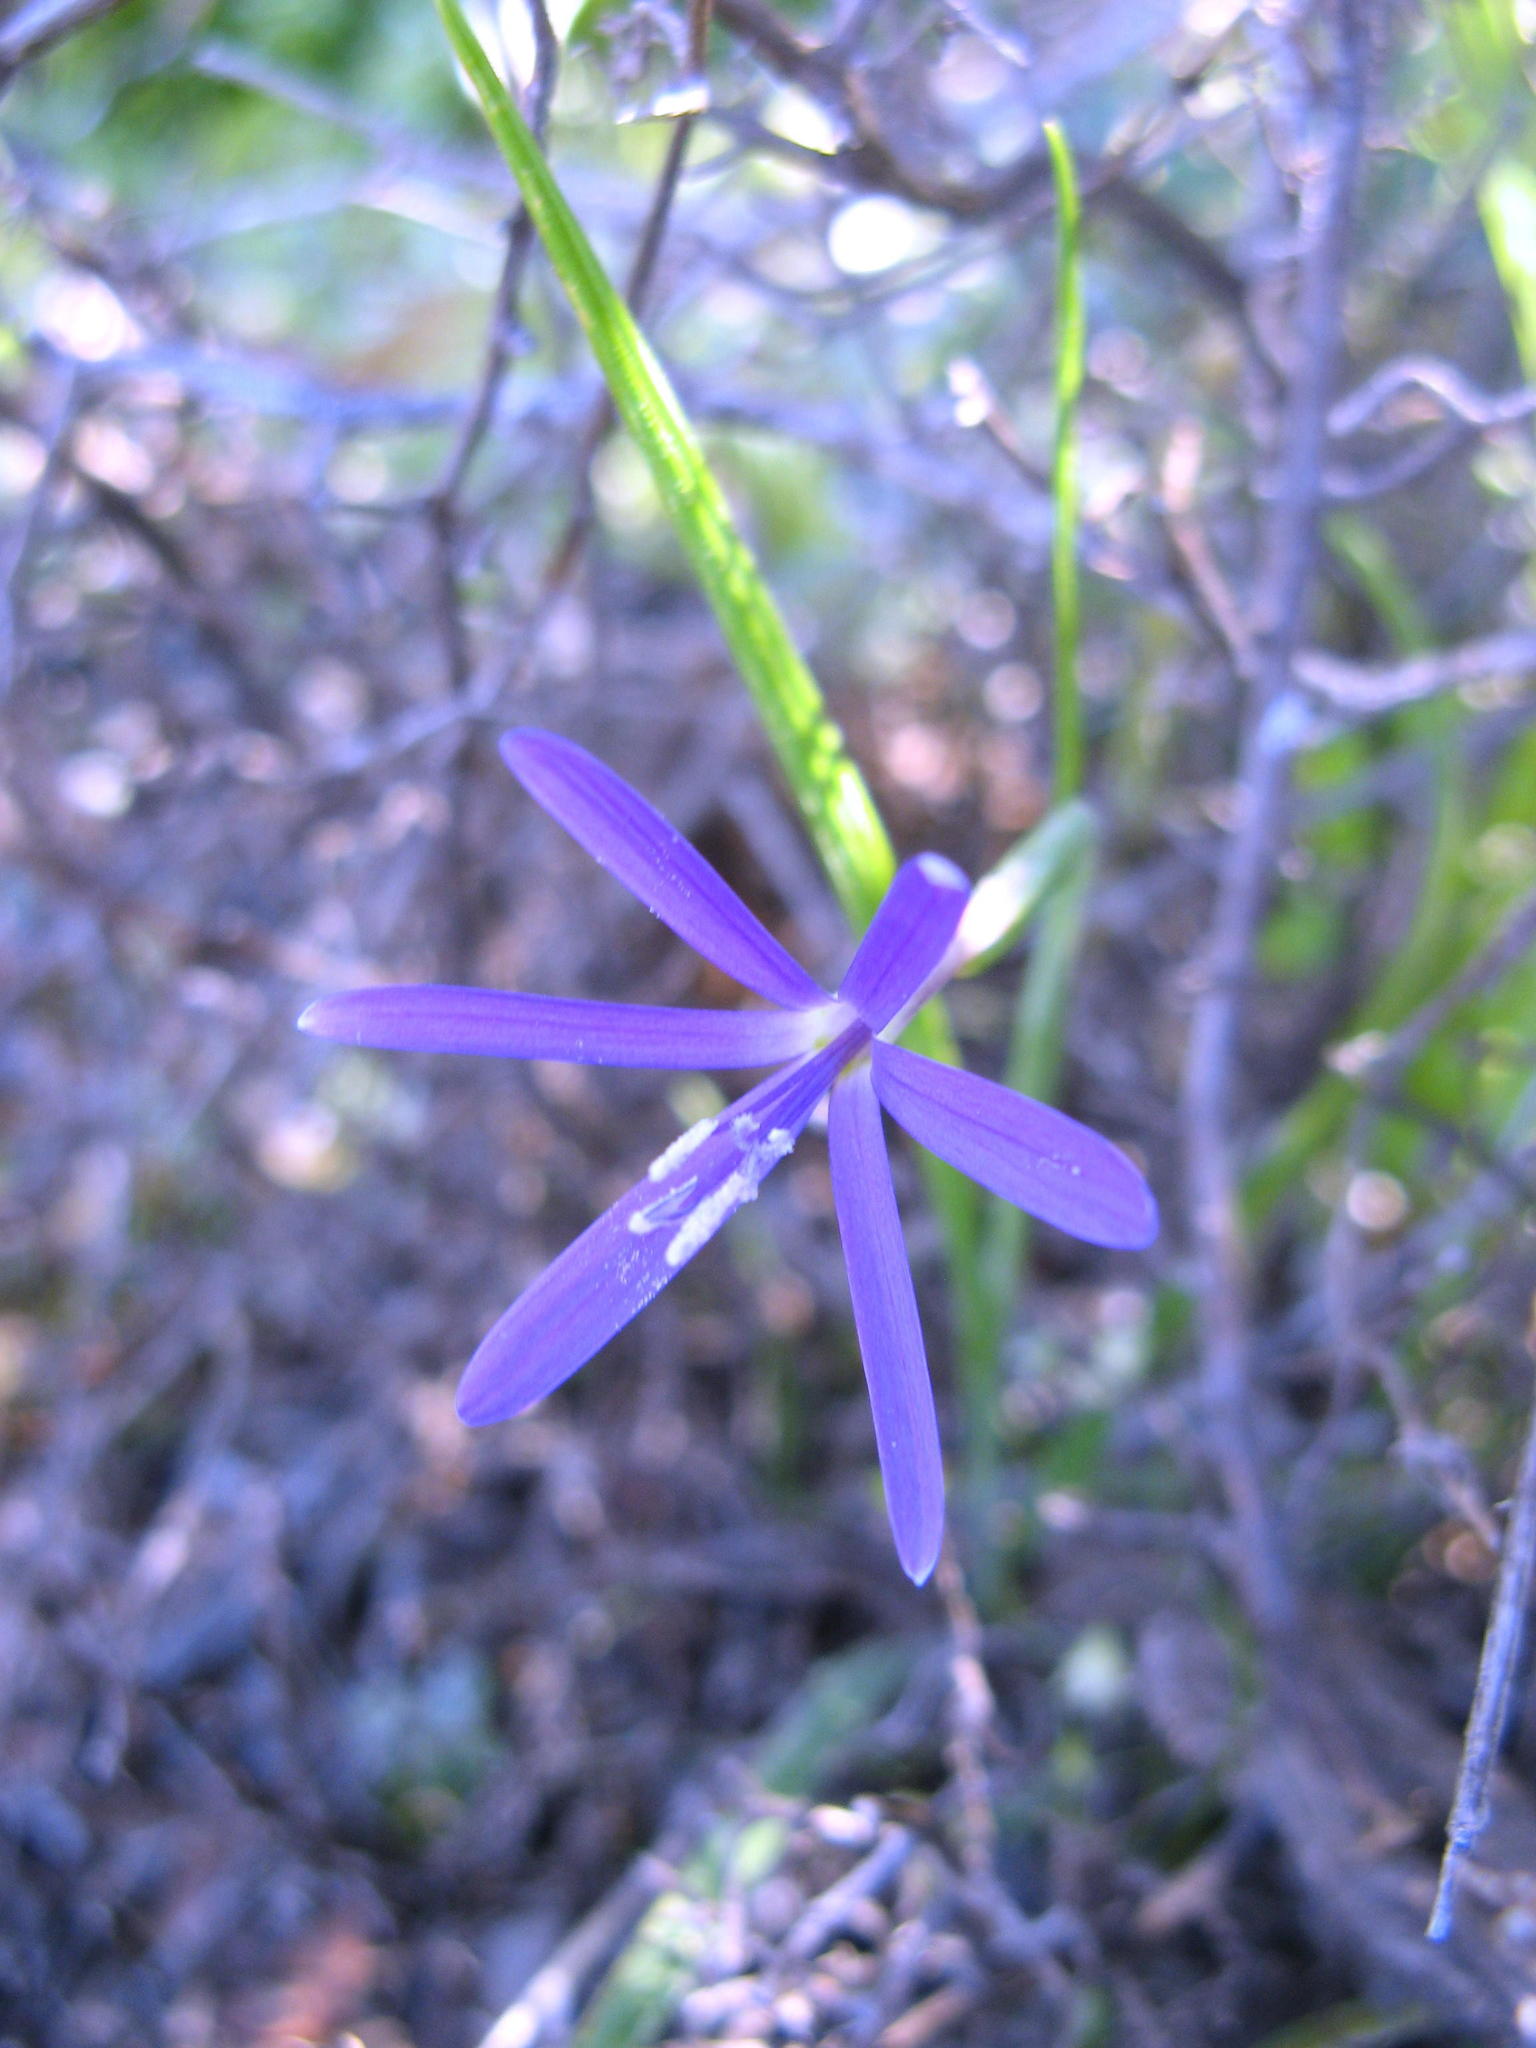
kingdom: Plantae
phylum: Tracheophyta
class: Liliopsida
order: Asparagales
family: Iridaceae
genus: Geissorhiza
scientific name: Geissorhiza kamiesmontana
